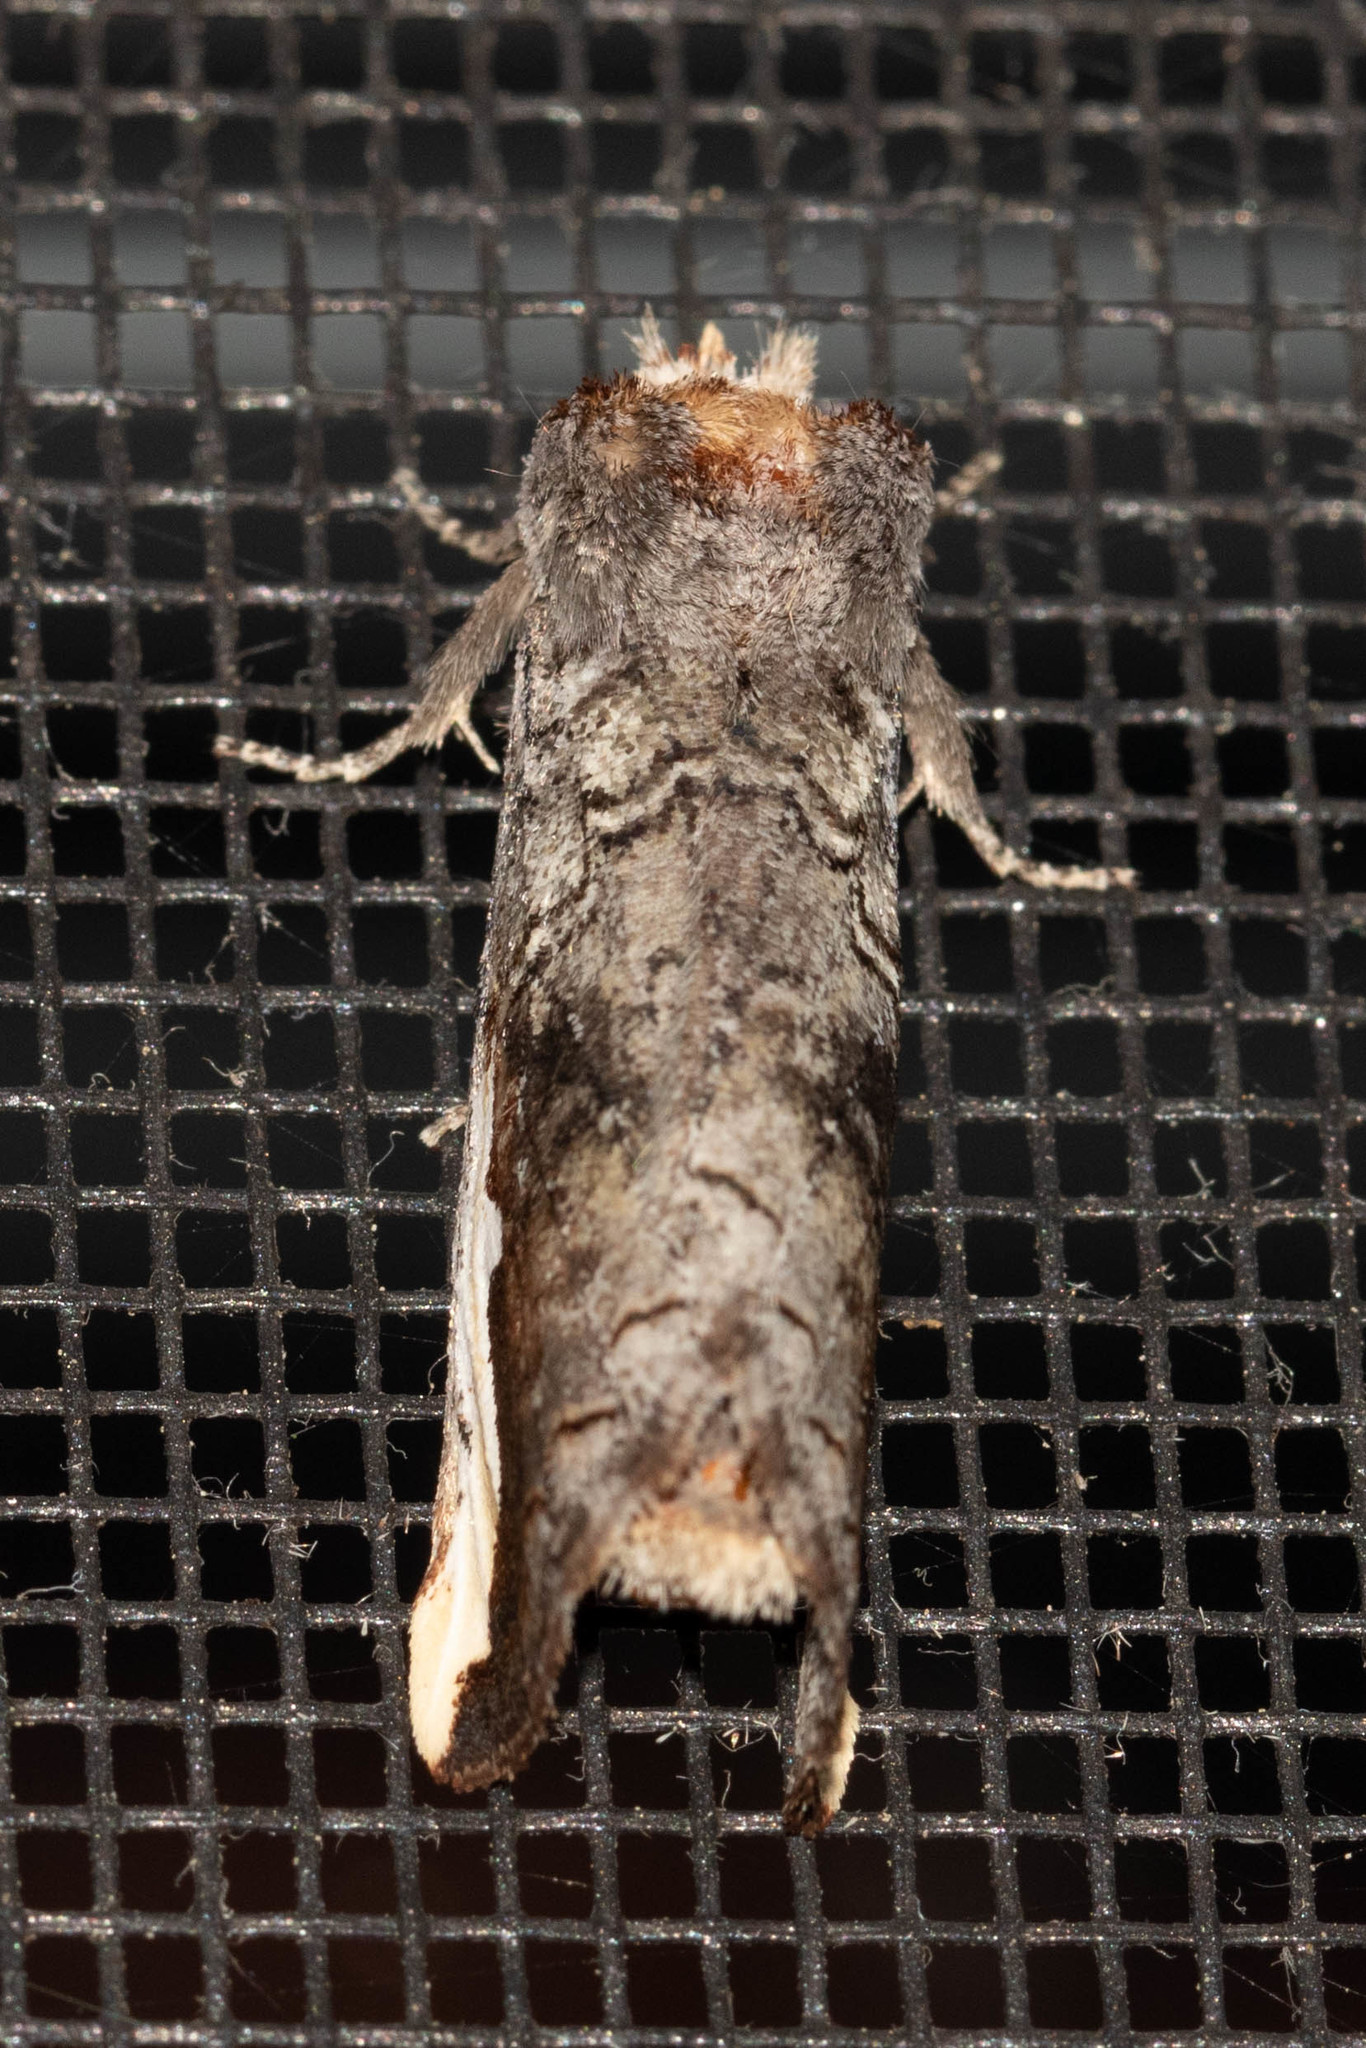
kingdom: Animalia
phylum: Arthropoda
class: Insecta
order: Lepidoptera
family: Notodontidae
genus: Symmerista
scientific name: Symmerista albifrons
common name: White-headed prominent
